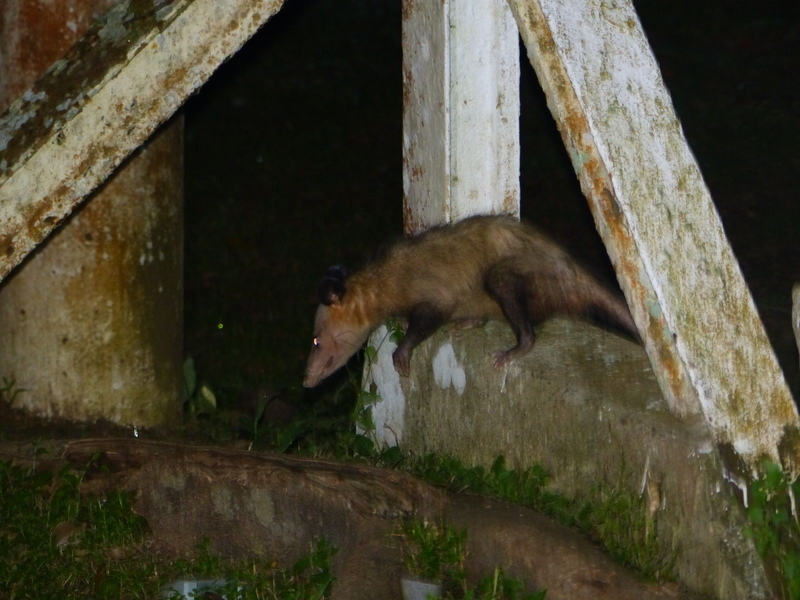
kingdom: Animalia
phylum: Chordata
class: Mammalia
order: Didelphimorphia
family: Didelphidae
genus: Didelphis
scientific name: Didelphis marsupialis
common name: Common opossum
